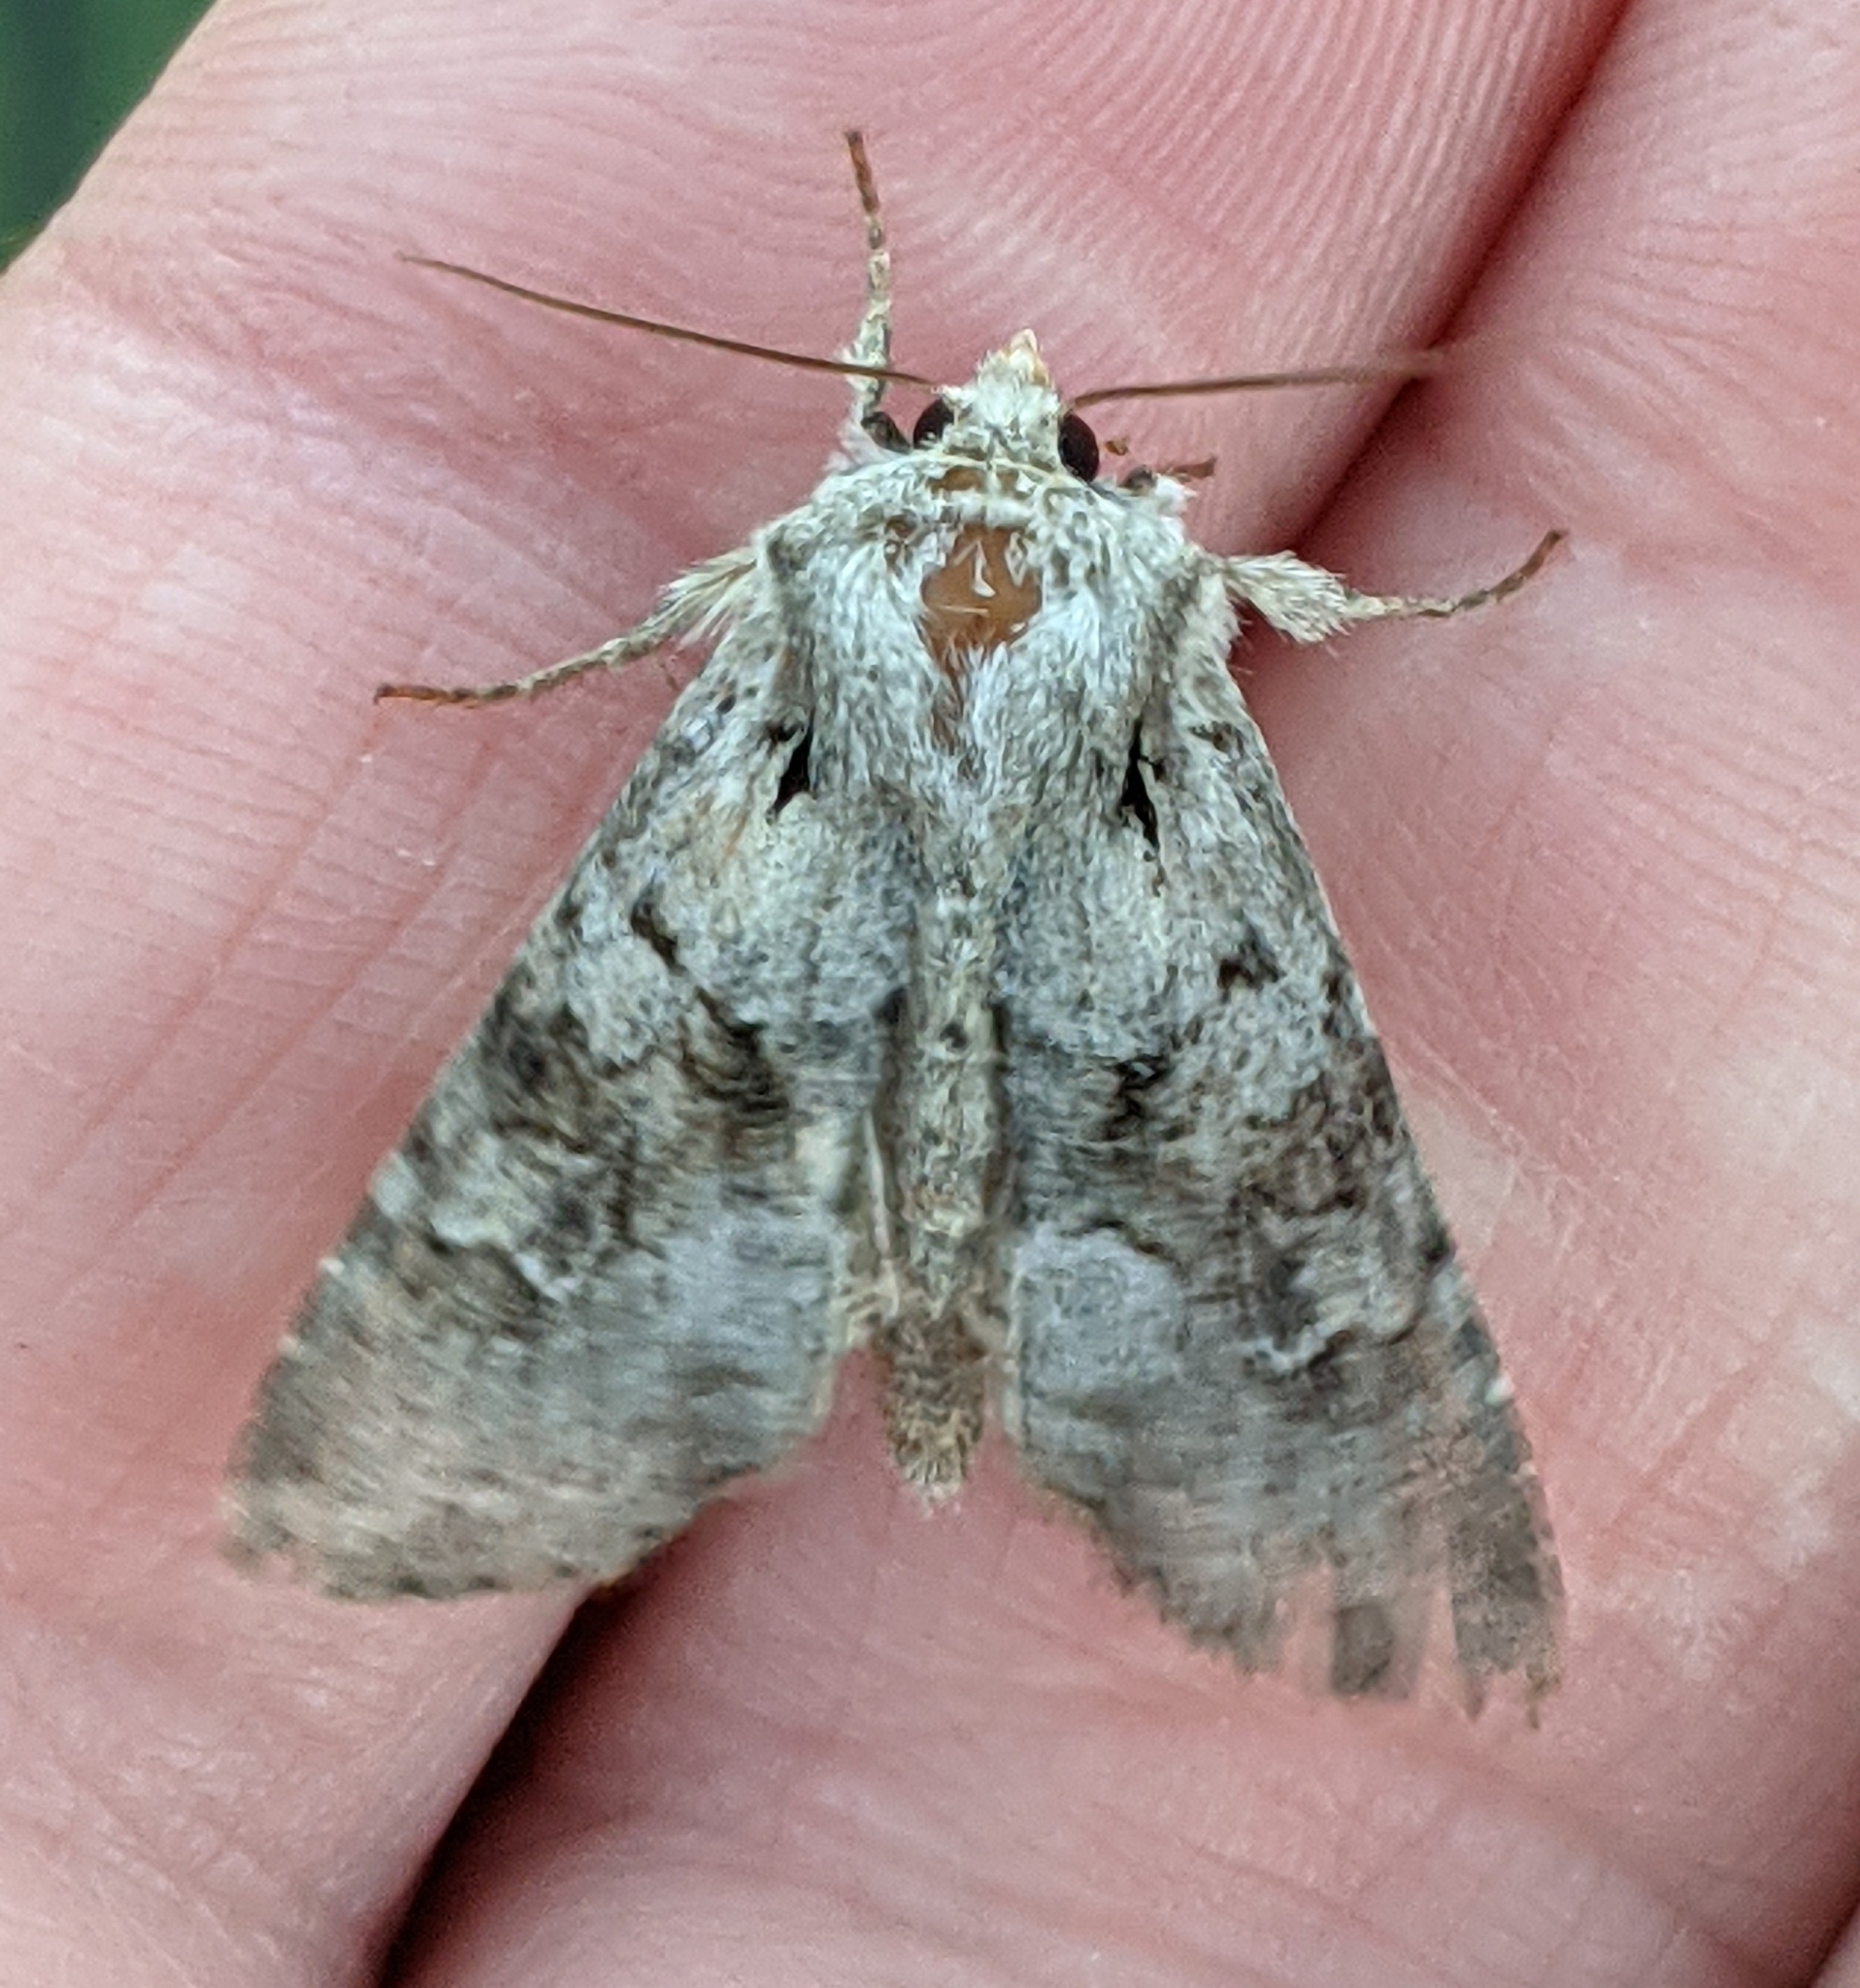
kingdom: Animalia
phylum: Arthropoda
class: Insecta
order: Lepidoptera
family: Noctuidae
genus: Apamea
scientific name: Apamea sordens
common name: Rustic shoulder-knot
